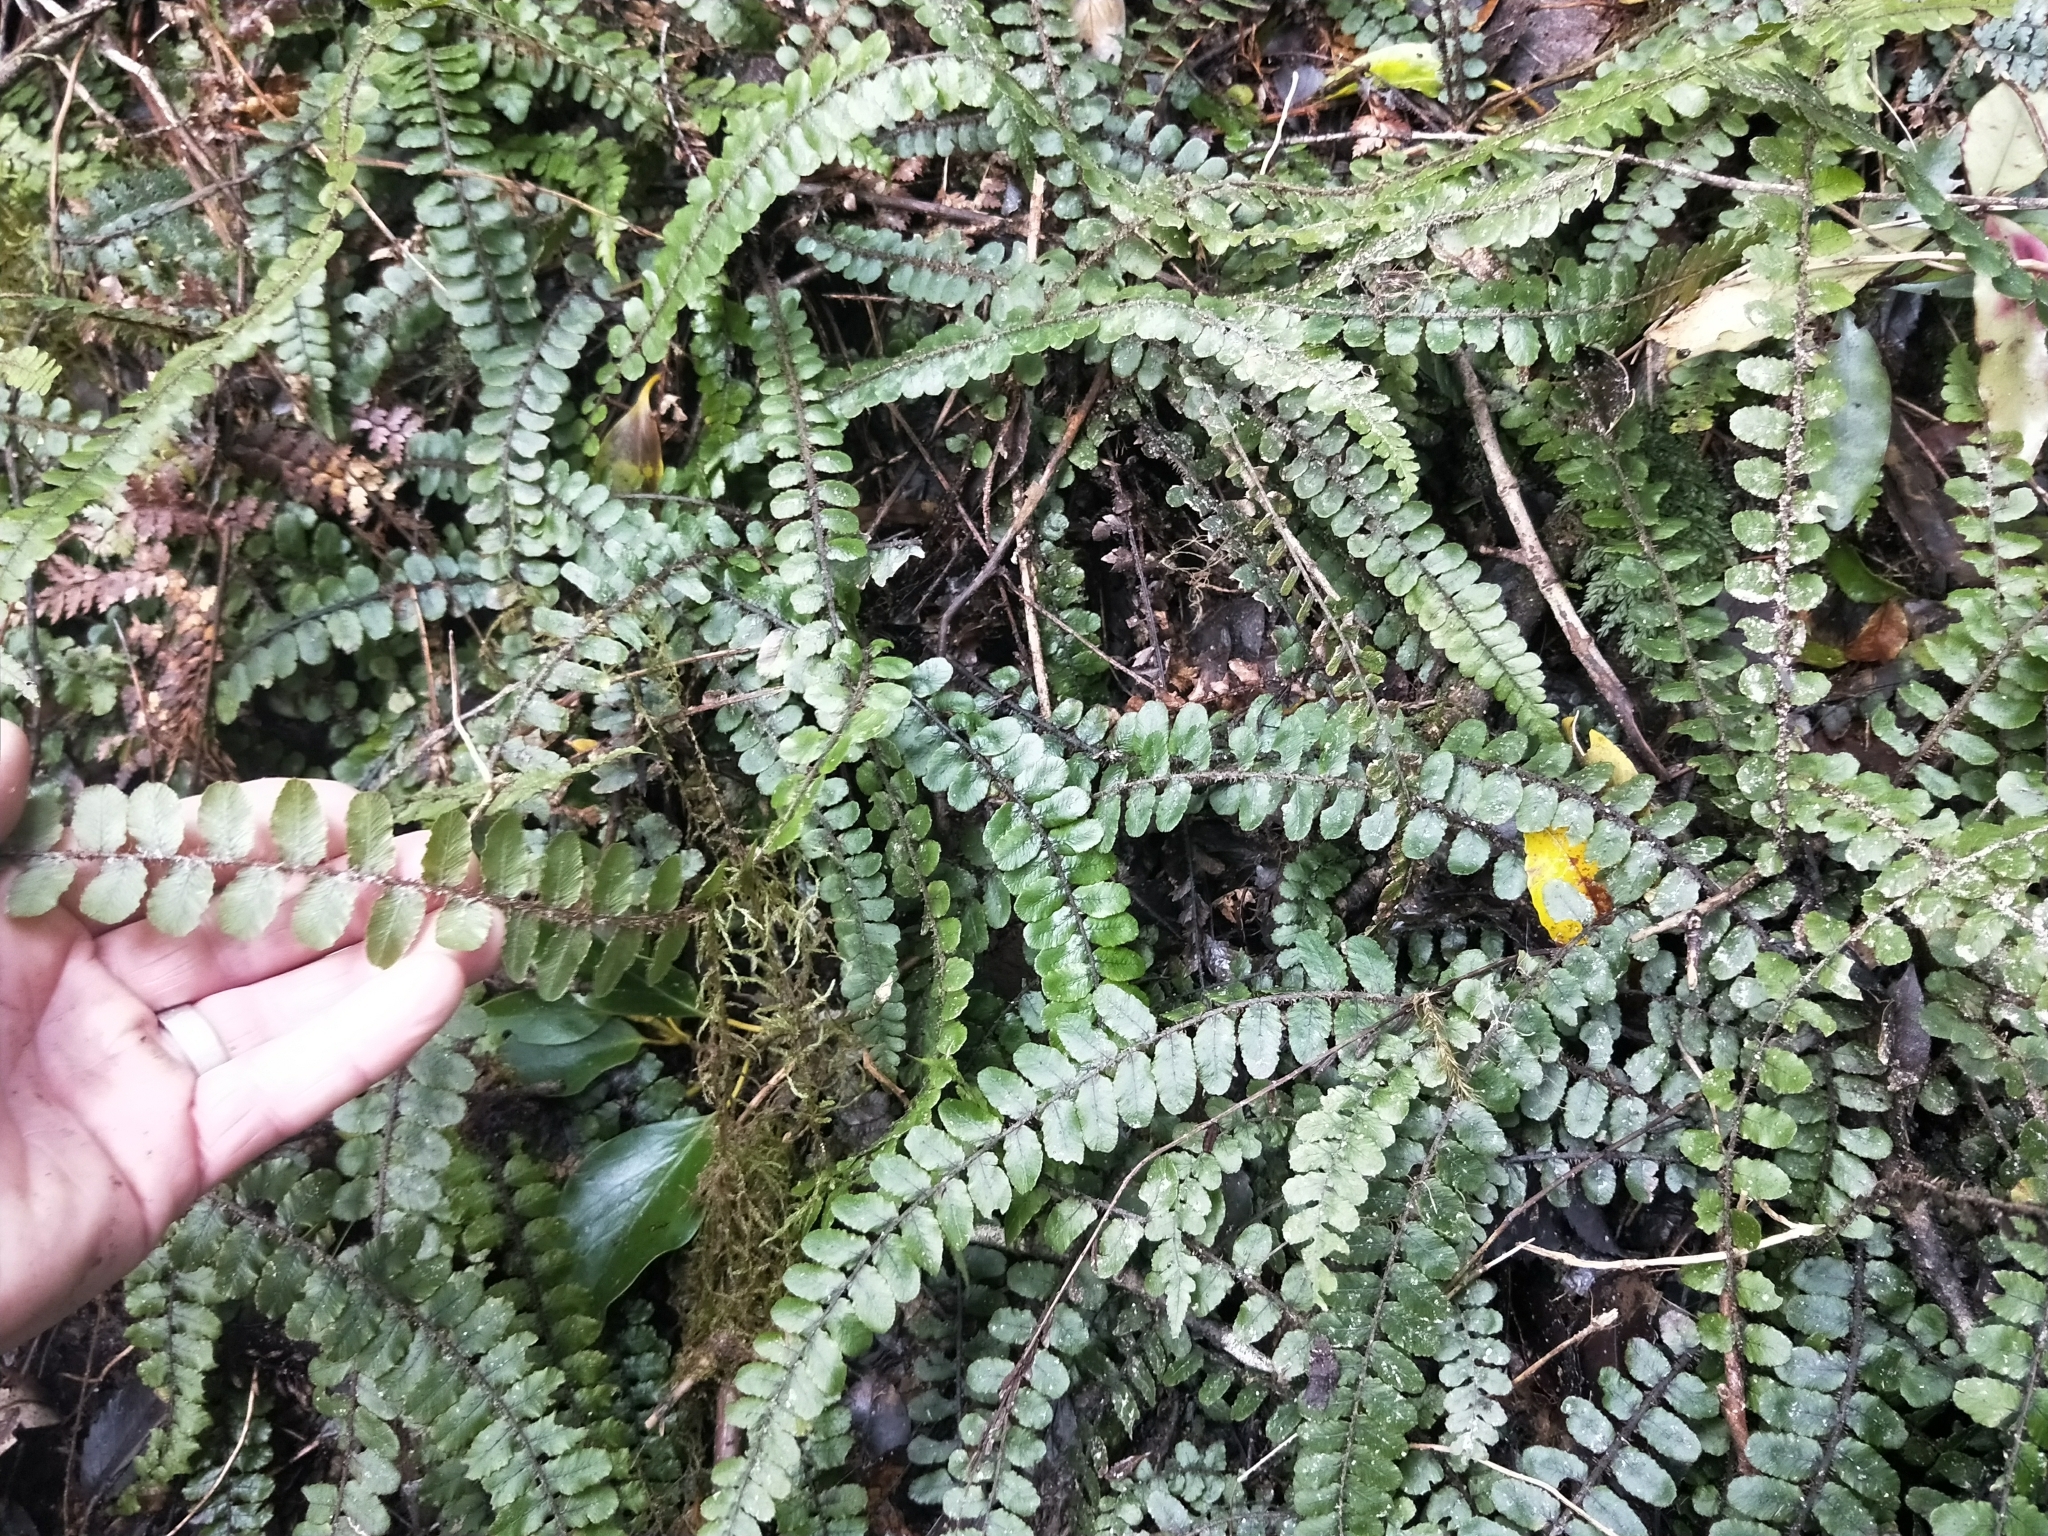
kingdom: Plantae
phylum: Tracheophyta
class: Polypodiopsida
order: Polypodiales
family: Blechnaceae
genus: Cranfillia
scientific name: Cranfillia fluviatilis
